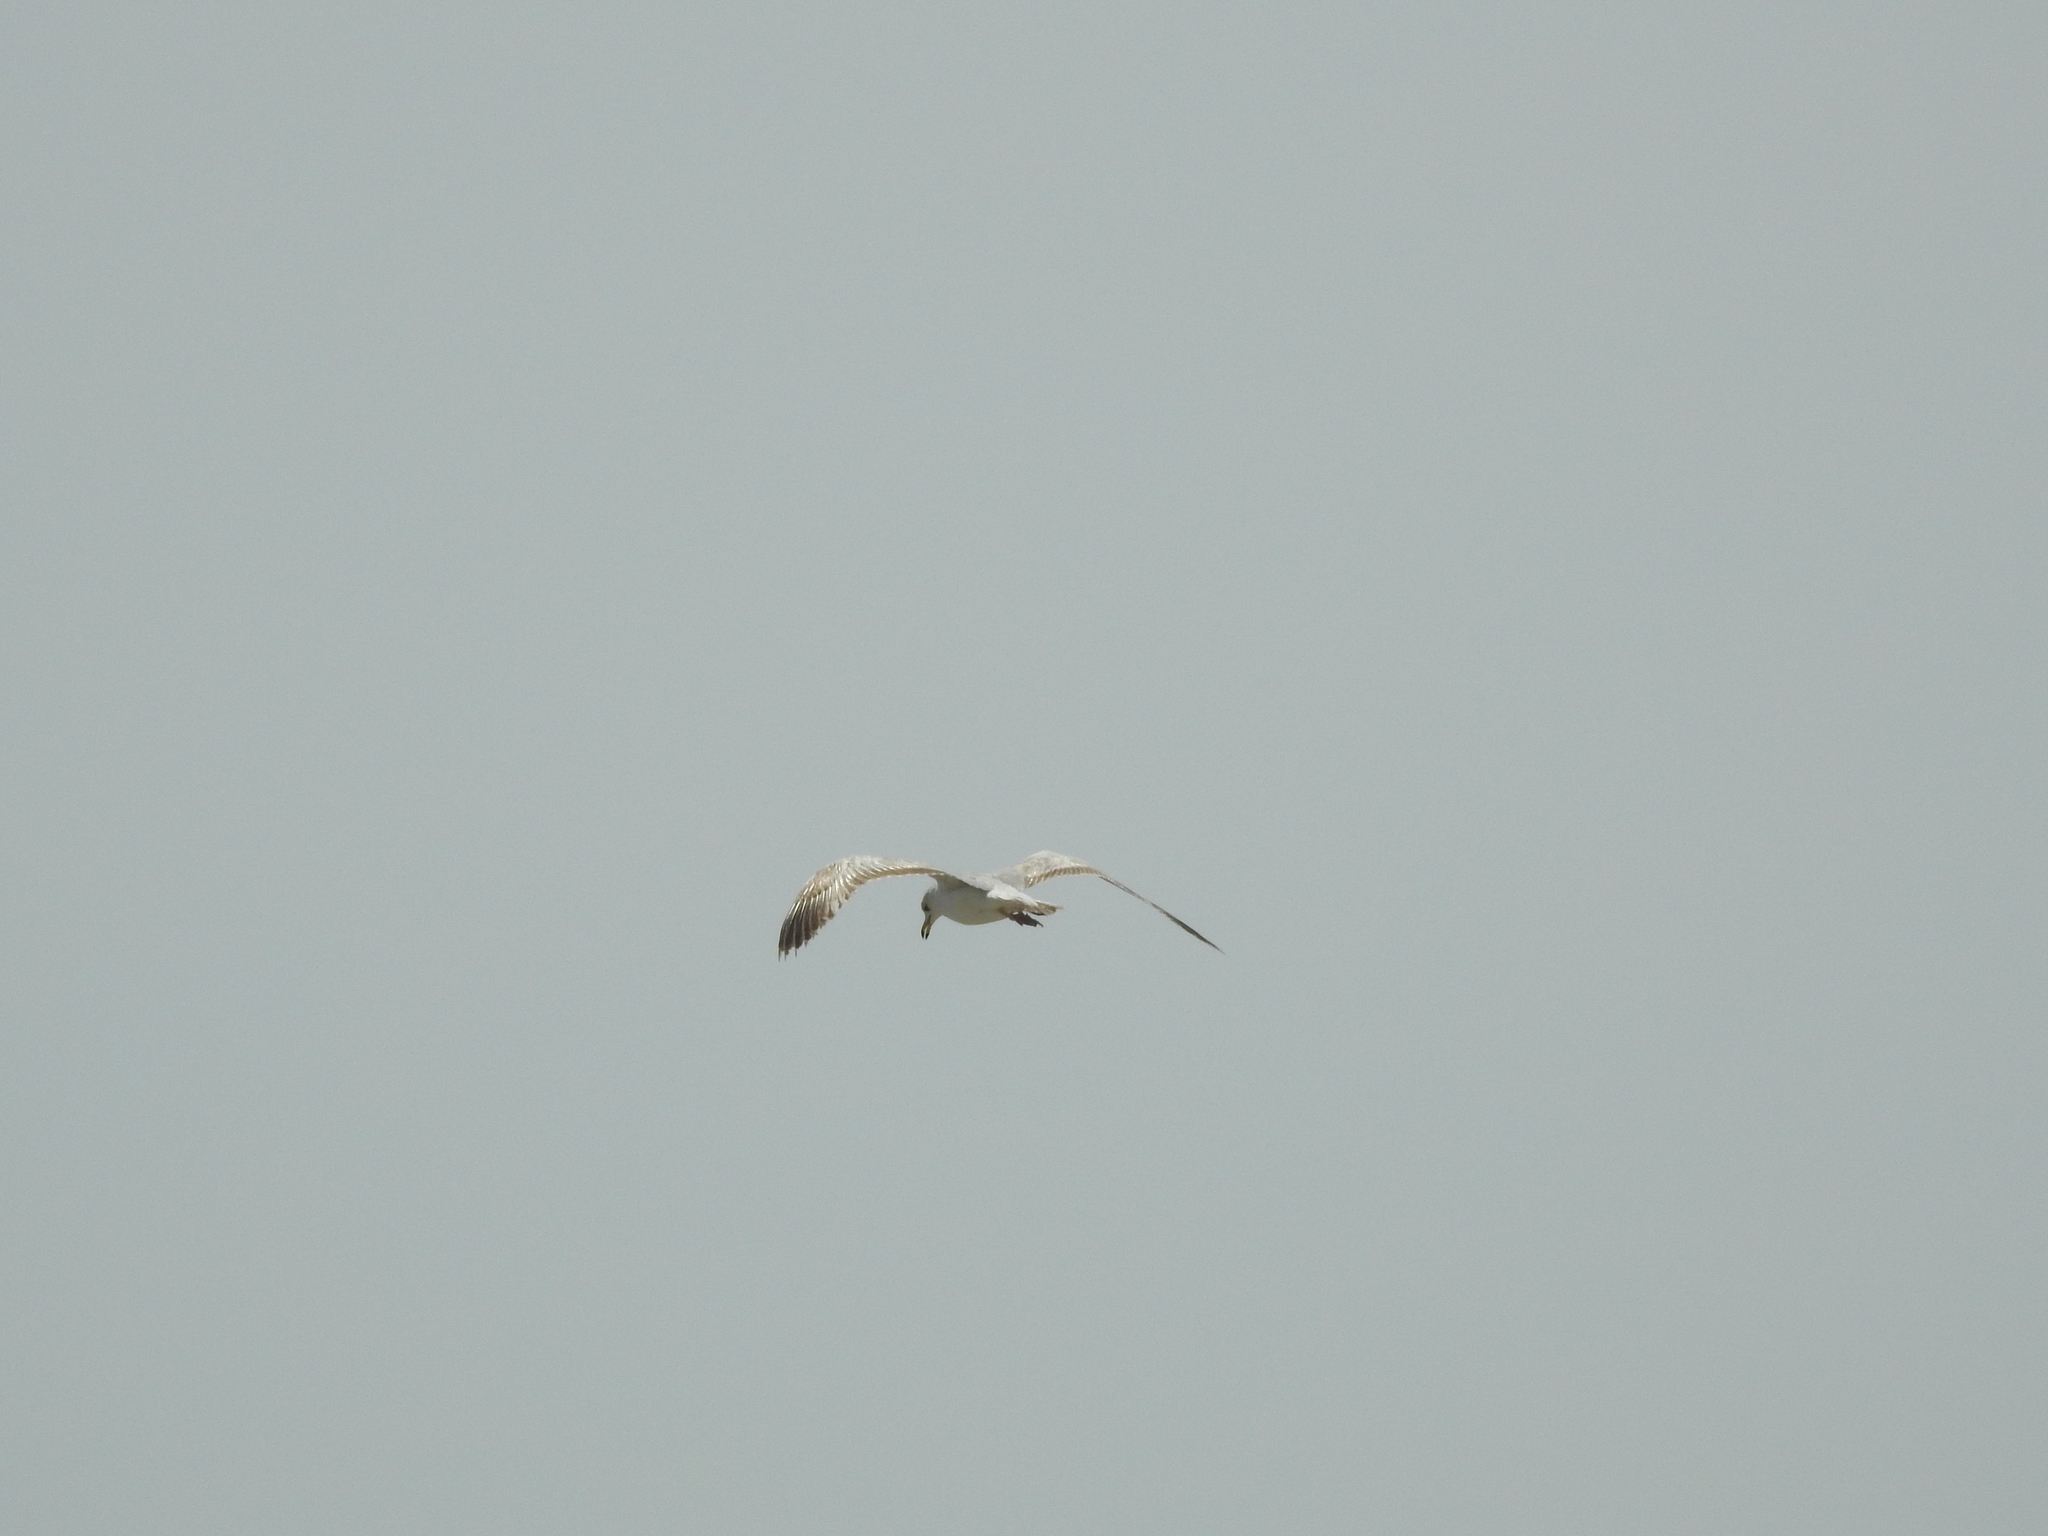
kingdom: Animalia
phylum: Chordata
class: Aves
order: Charadriiformes
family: Laridae
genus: Larus
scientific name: Larus delawarensis
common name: Ring-billed gull
